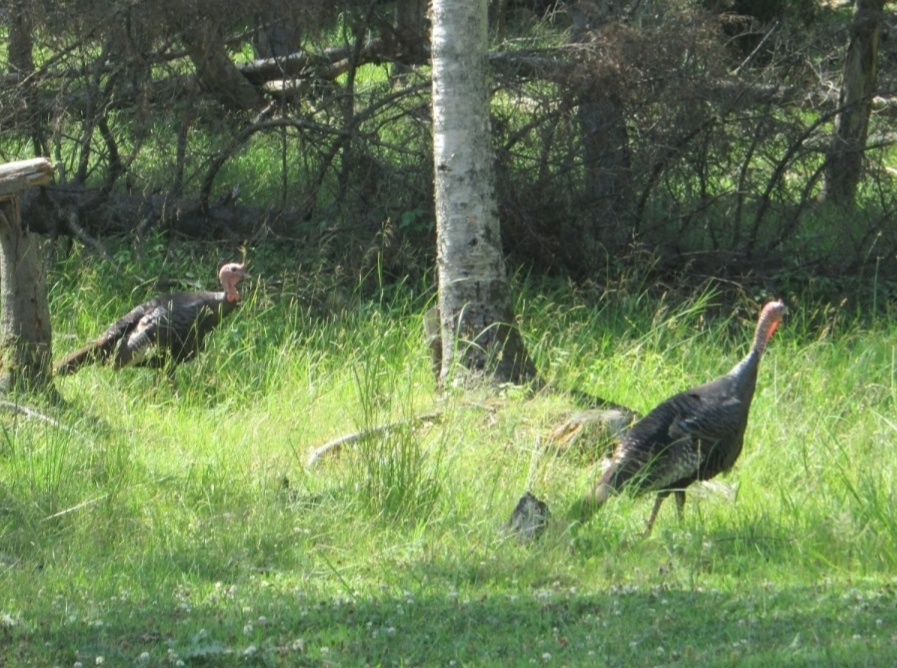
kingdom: Animalia
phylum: Chordata
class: Aves
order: Galliformes
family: Phasianidae
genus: Meleagris
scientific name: Meleagris gallopavo
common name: Wild turkey
